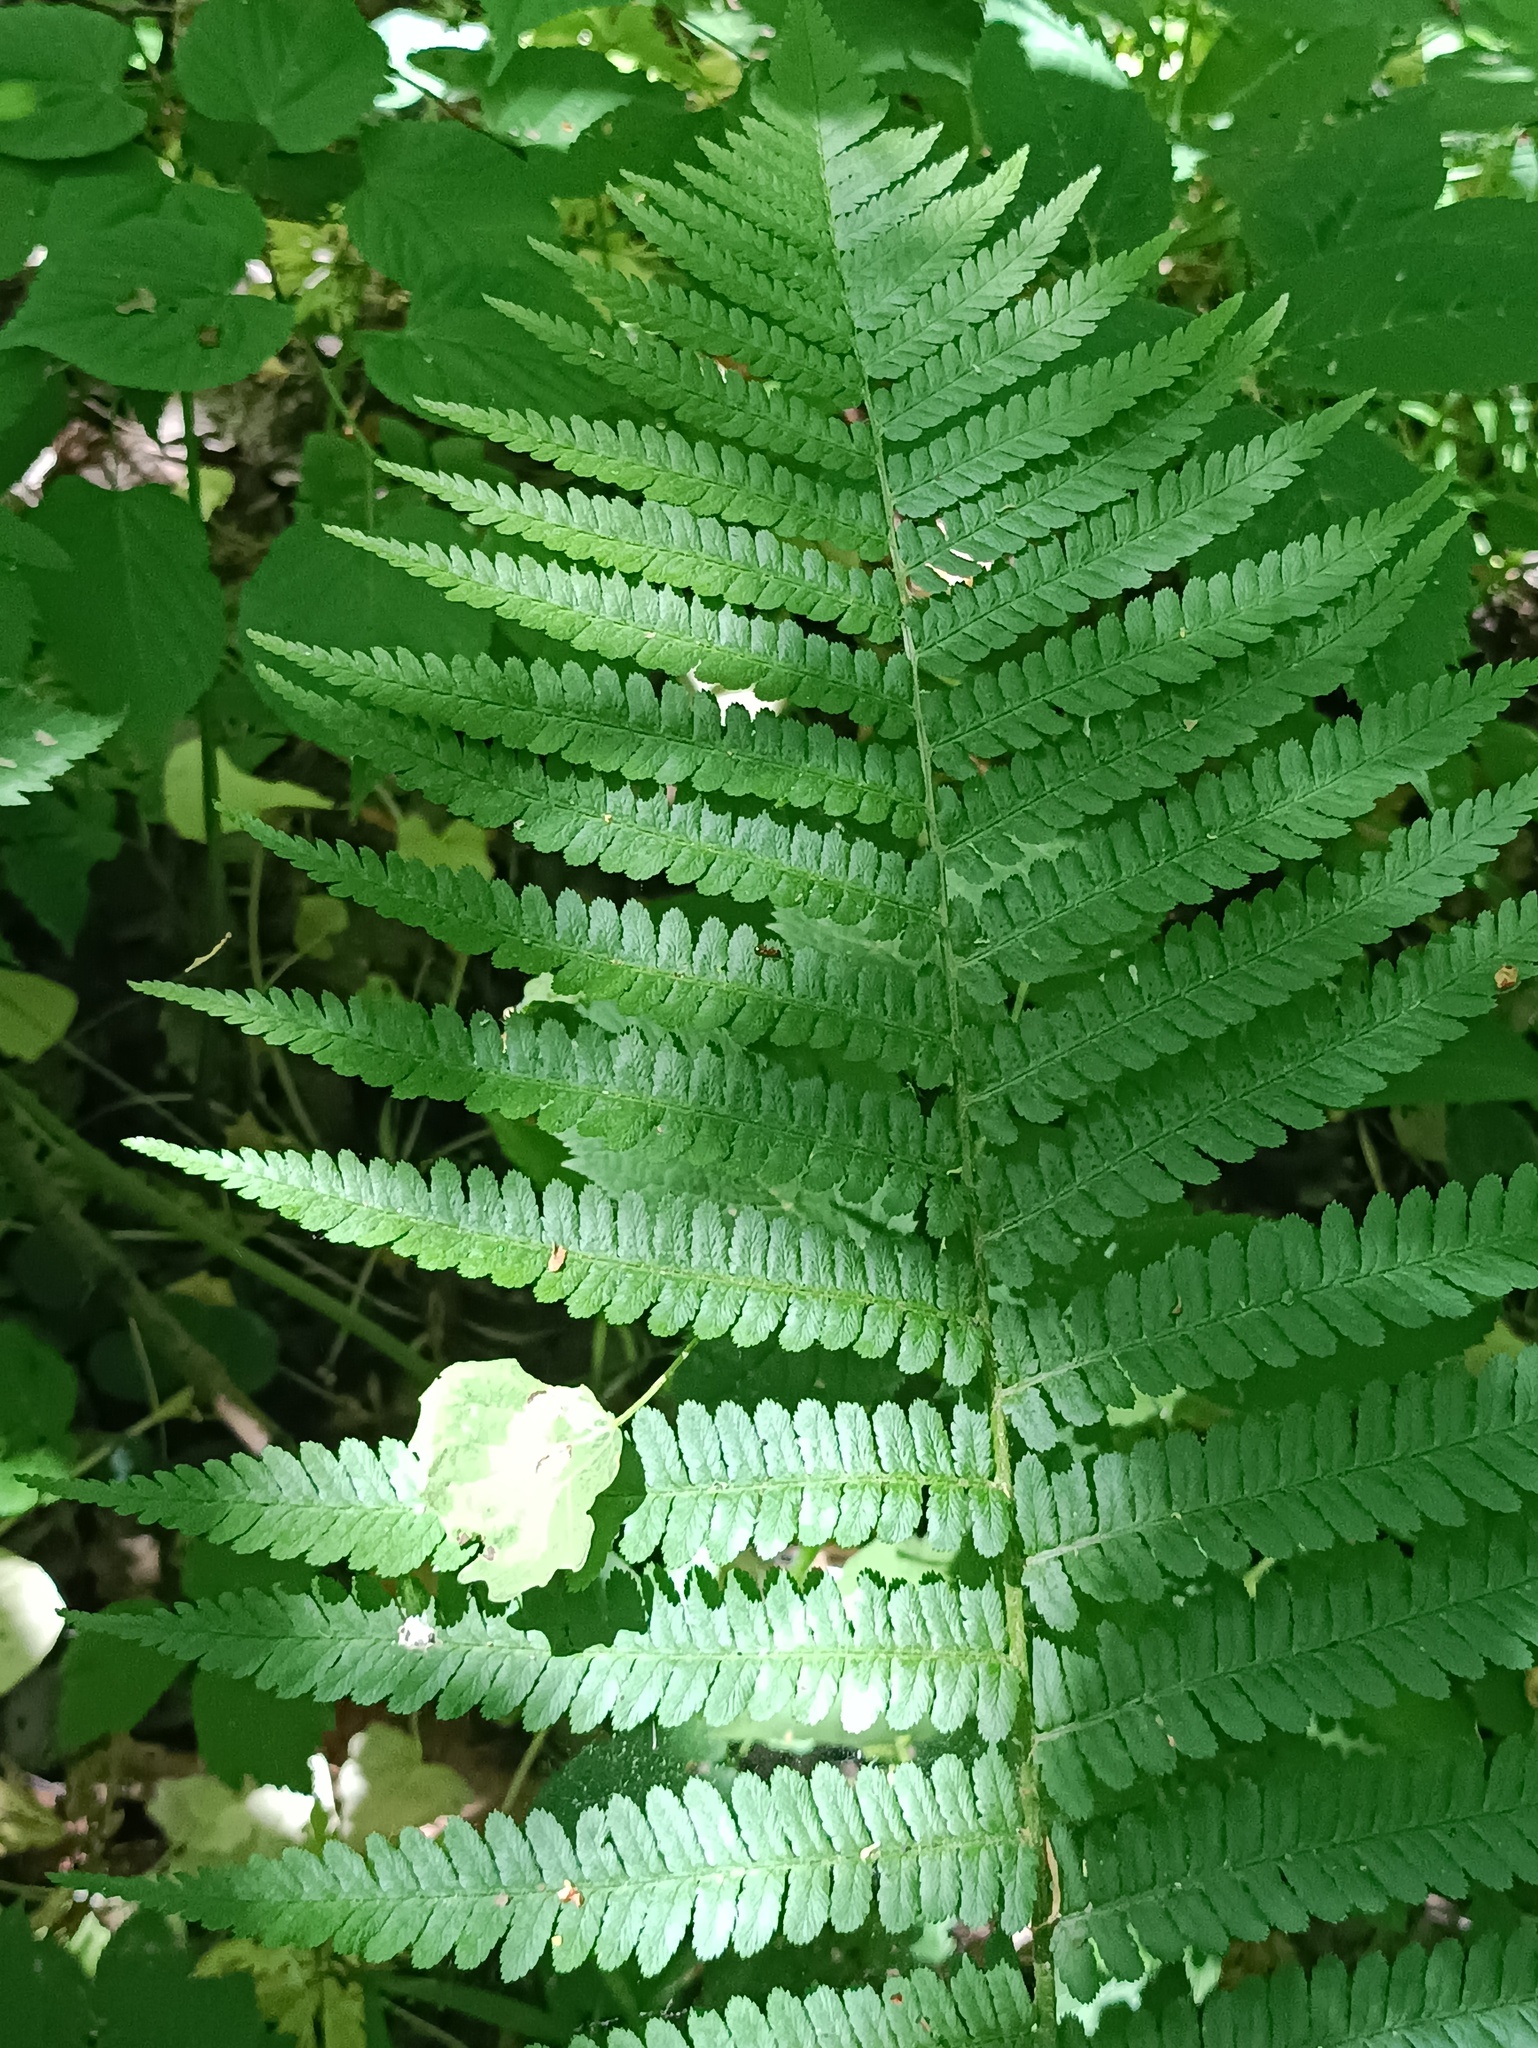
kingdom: Plantae
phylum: Tracheophyta
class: Polypodiopsida
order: Polypodiales
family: Dryopteridaceae
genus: Dryopteris
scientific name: Dryopteris filix-mas
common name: Male fern
